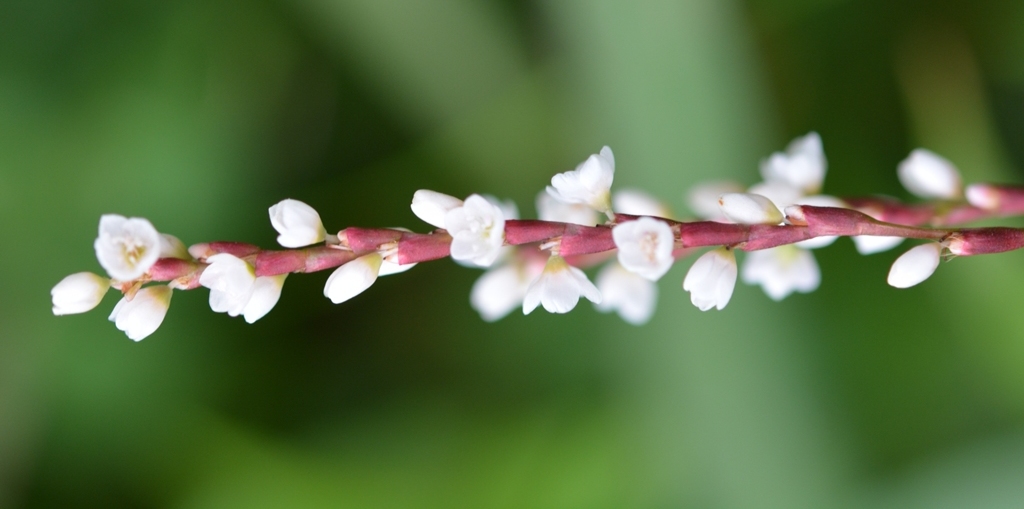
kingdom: Plantae
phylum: Tracheophyta
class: Magnoliopsida
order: Caryophyllales
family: Polygonaceae
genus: Persicaria
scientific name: Persicaria hydropiperoides
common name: Swamp smartweed
